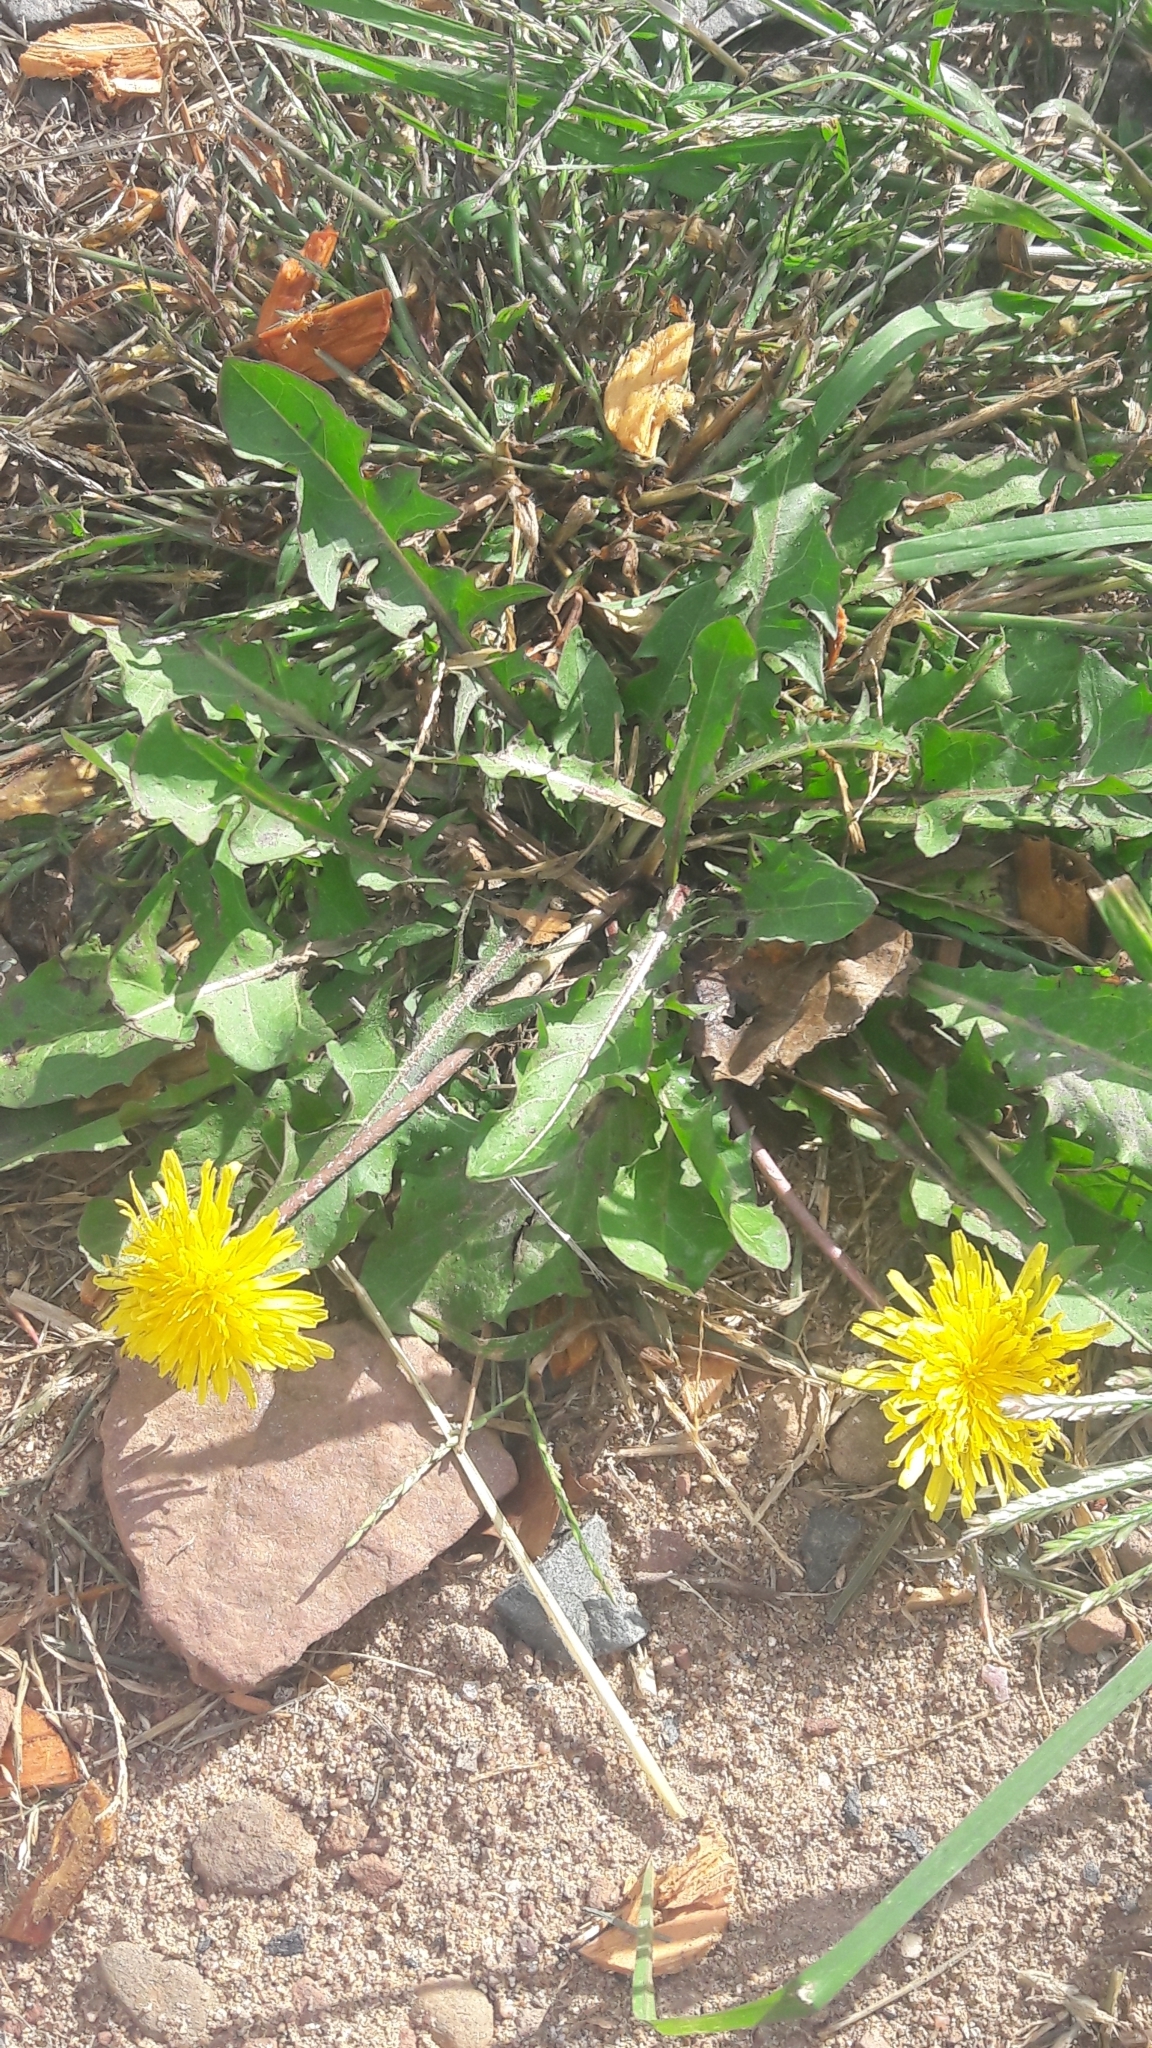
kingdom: Plantae
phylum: Tracheophyta
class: Magnoliopsida
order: Asterales
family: Asteraceae
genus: Taraxacum
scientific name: Taraxacum officinale
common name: Common dandelion
